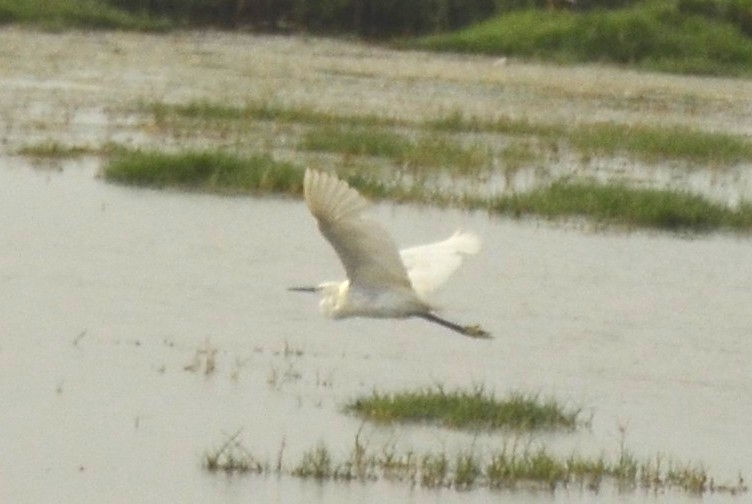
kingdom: Animalia
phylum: Chordata
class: Aves
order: Pelecaniformes
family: Ardeidae
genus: Egretta
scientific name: Egretta garzetta
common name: Little egret
